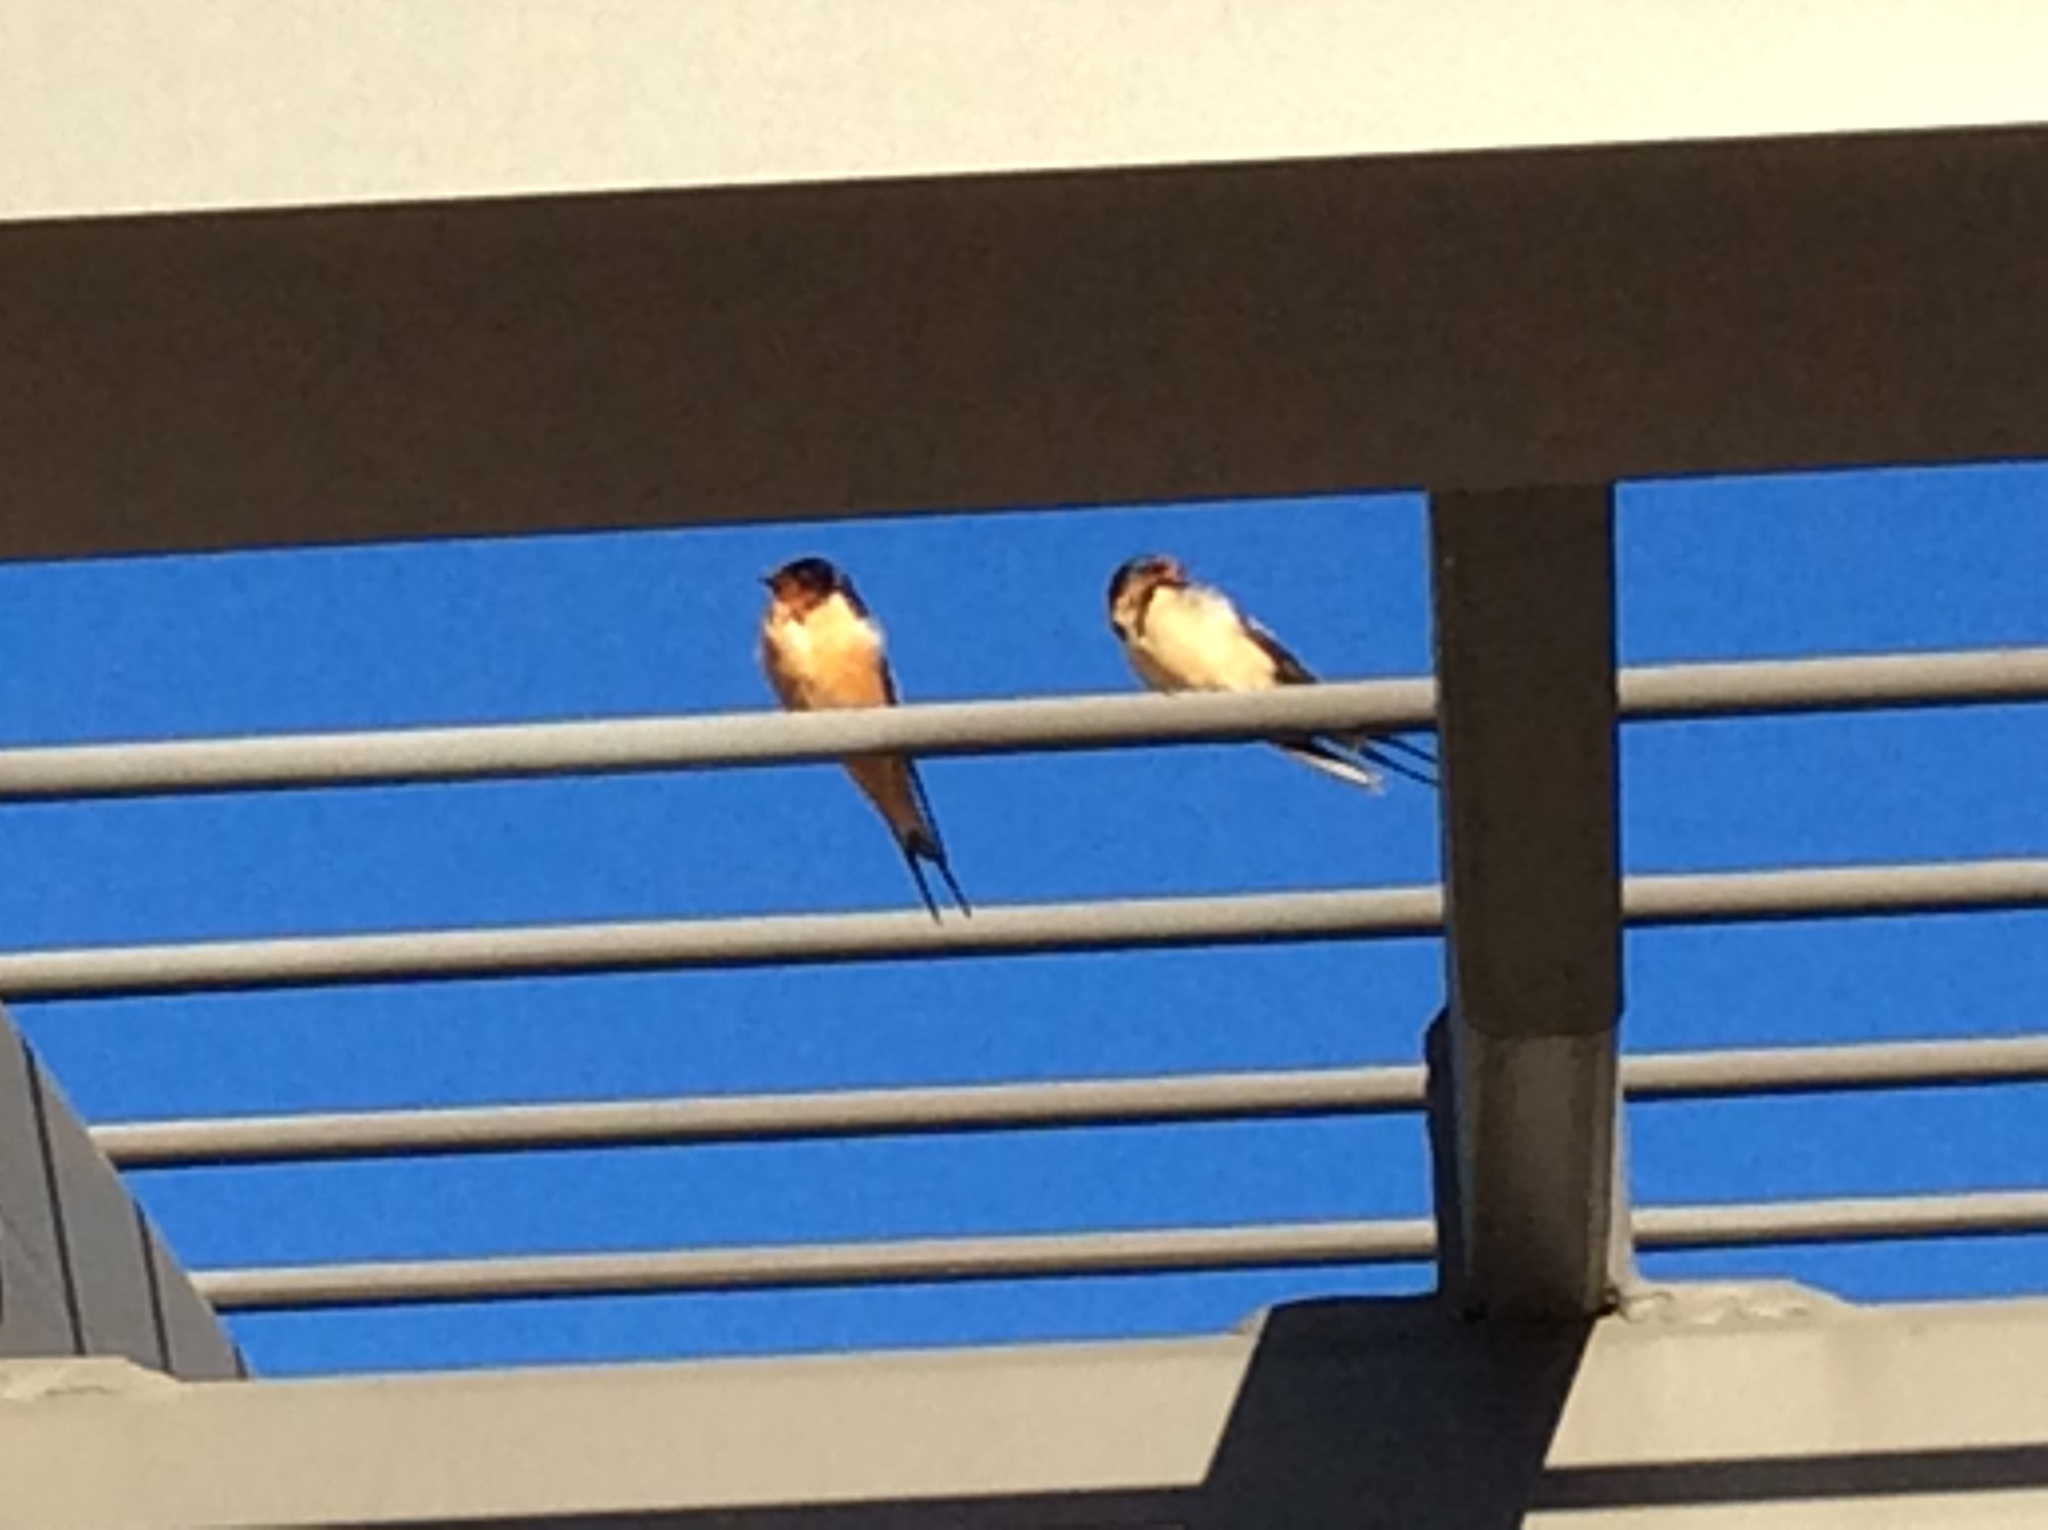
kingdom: Animalia
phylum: Chordata
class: Aves
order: Passeriformes
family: Hirundinidae
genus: Hirundo
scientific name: Hirundo rustica
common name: Barn swallow
